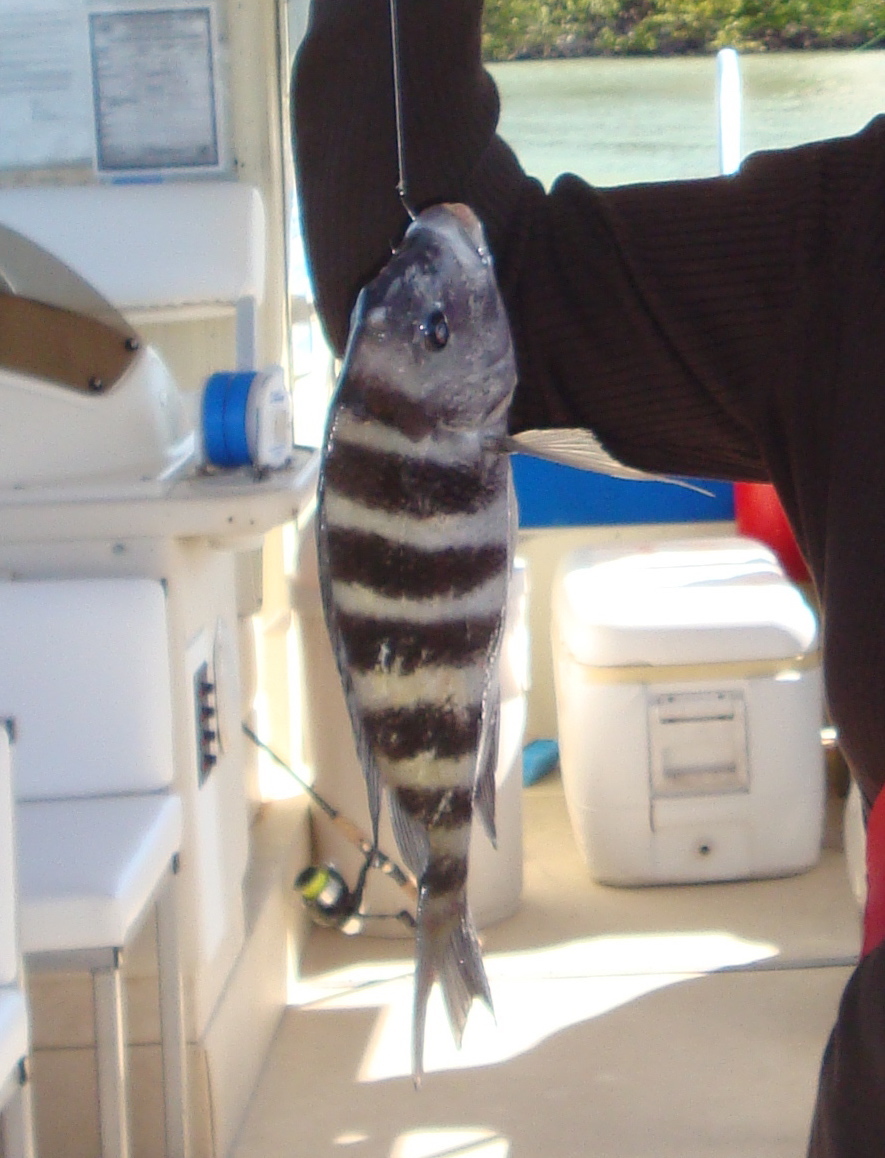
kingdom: Animalia
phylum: Chordata
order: Perciformes
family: Sparidae
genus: Archosargus
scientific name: Archosargus probatocephalus
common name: Sheepshead
